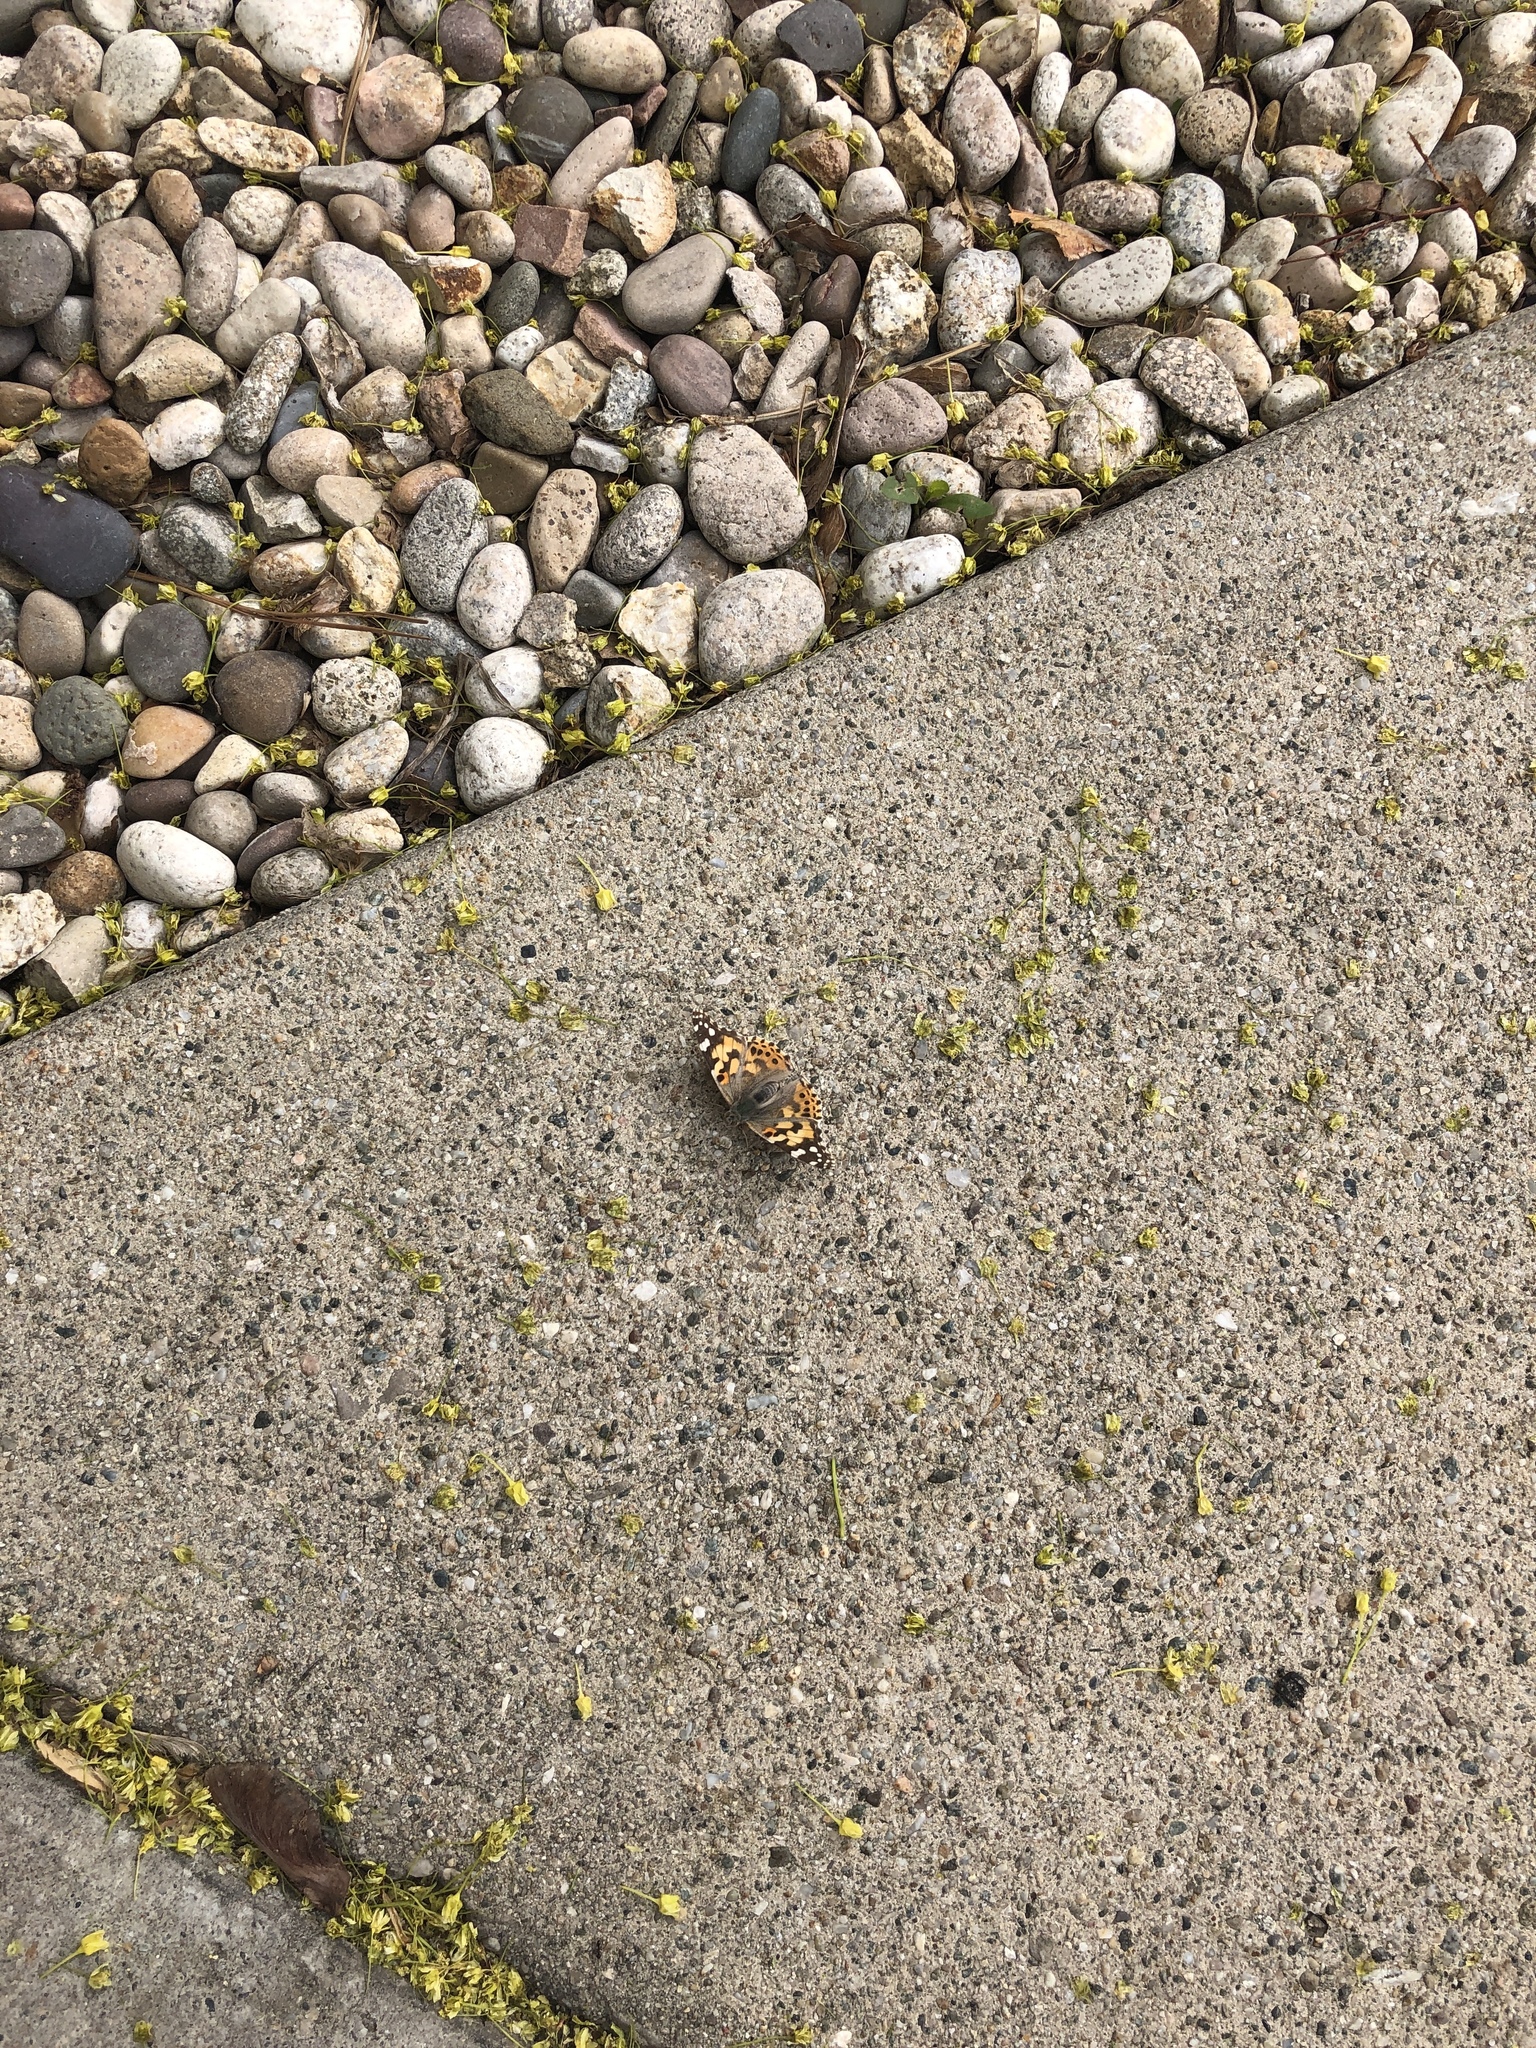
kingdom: Animalia
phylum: Arthropoda
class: Insecta
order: Lepidoptera
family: Nymphalidae
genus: Vanessa
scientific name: Vanessa cardui
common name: Painted lady
